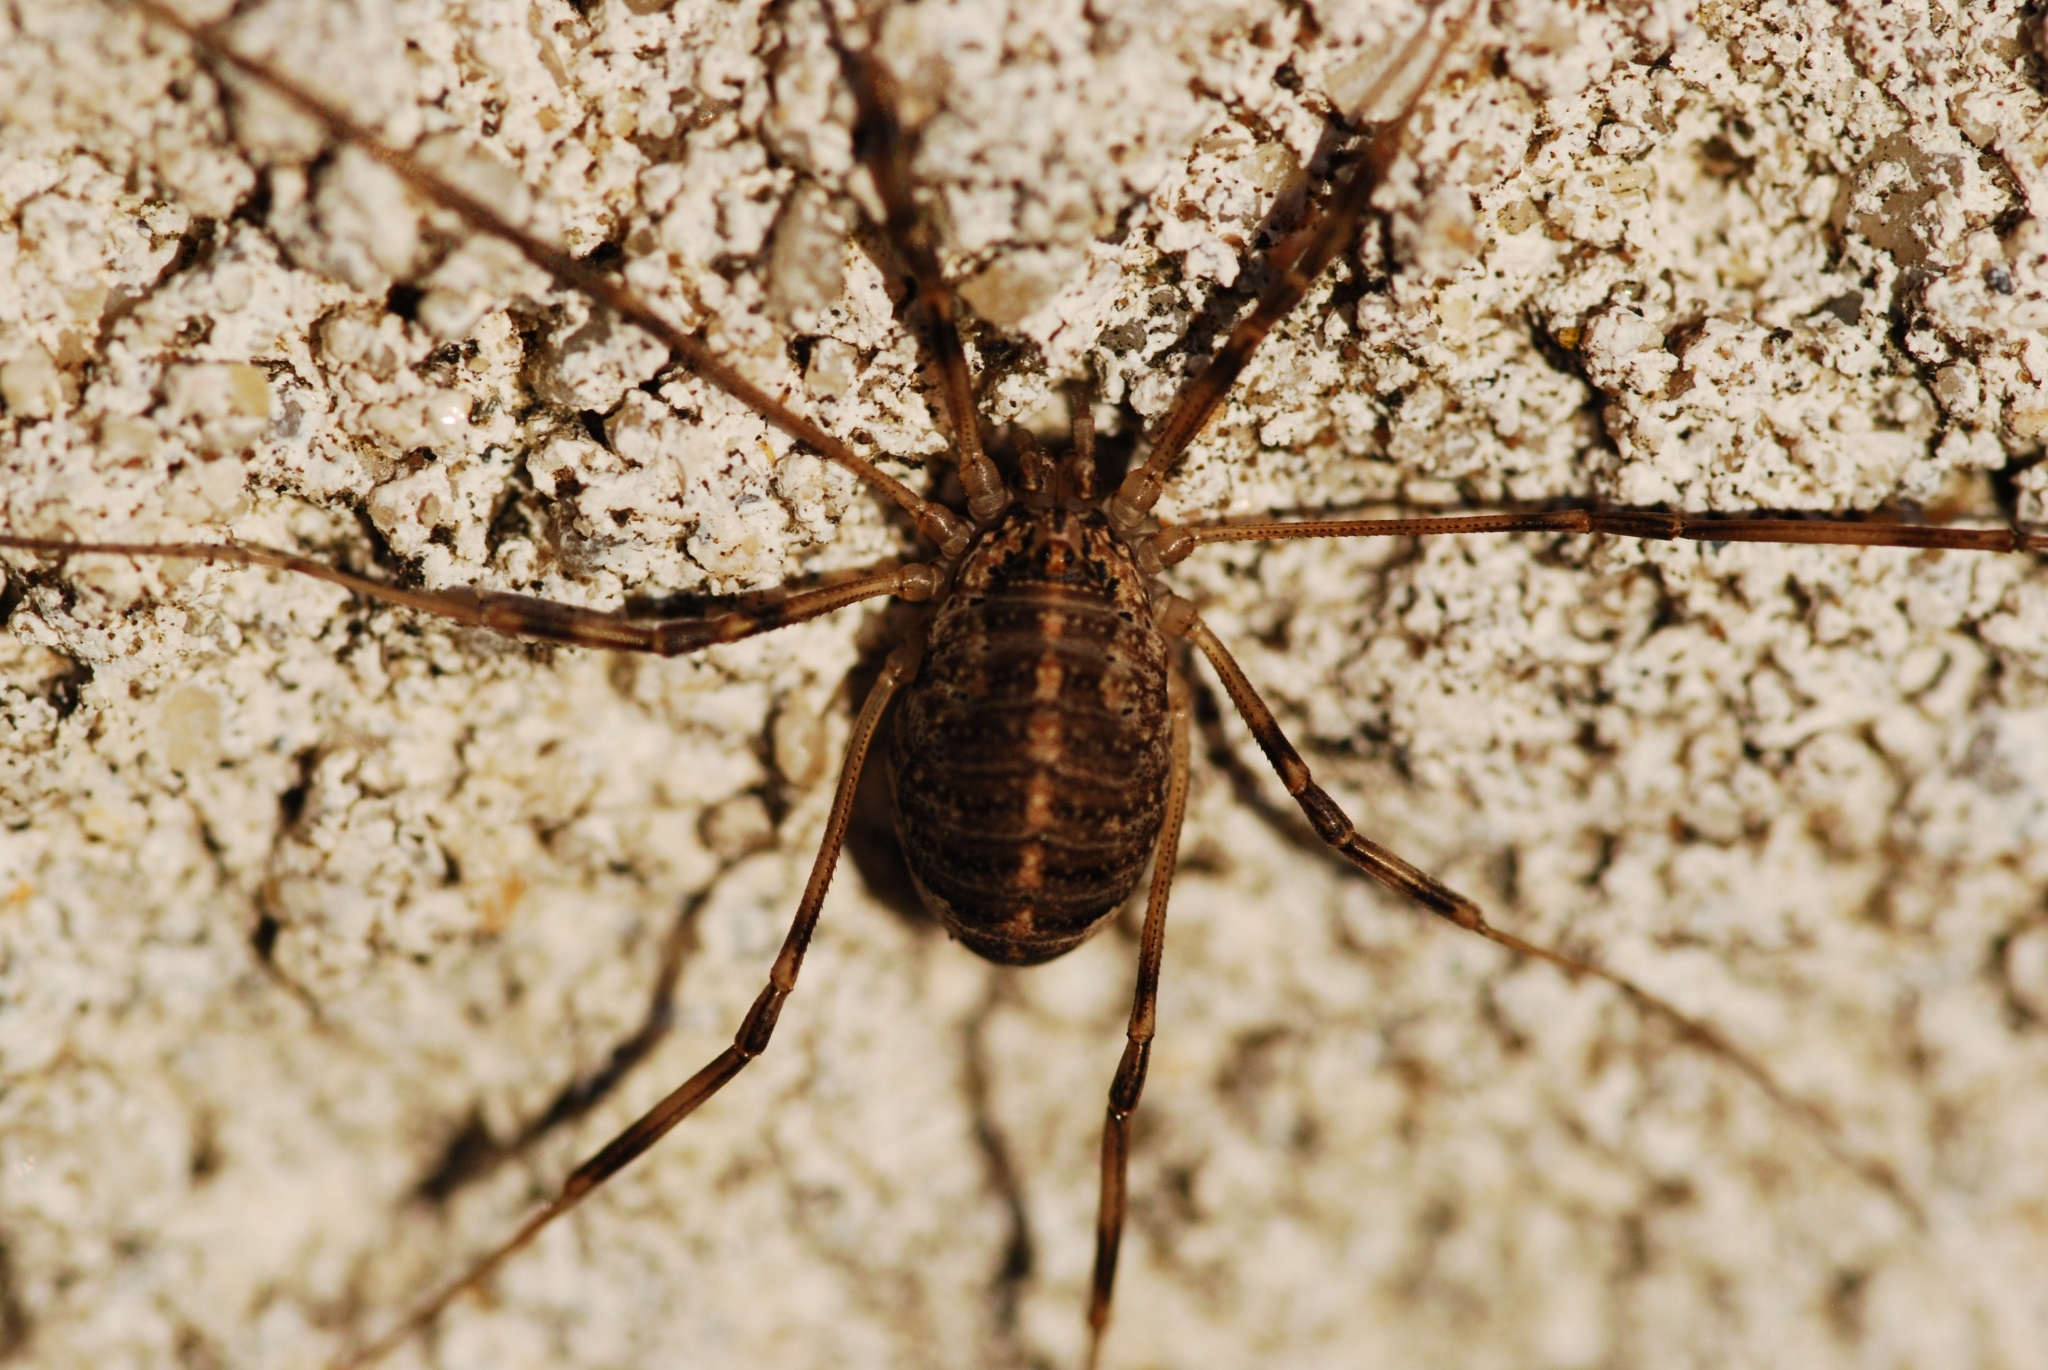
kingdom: Animalia
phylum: Arthropoda
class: Arachnida
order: Opiliones
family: Phalangiidae
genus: Opilio
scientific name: Opilio saxatilis
